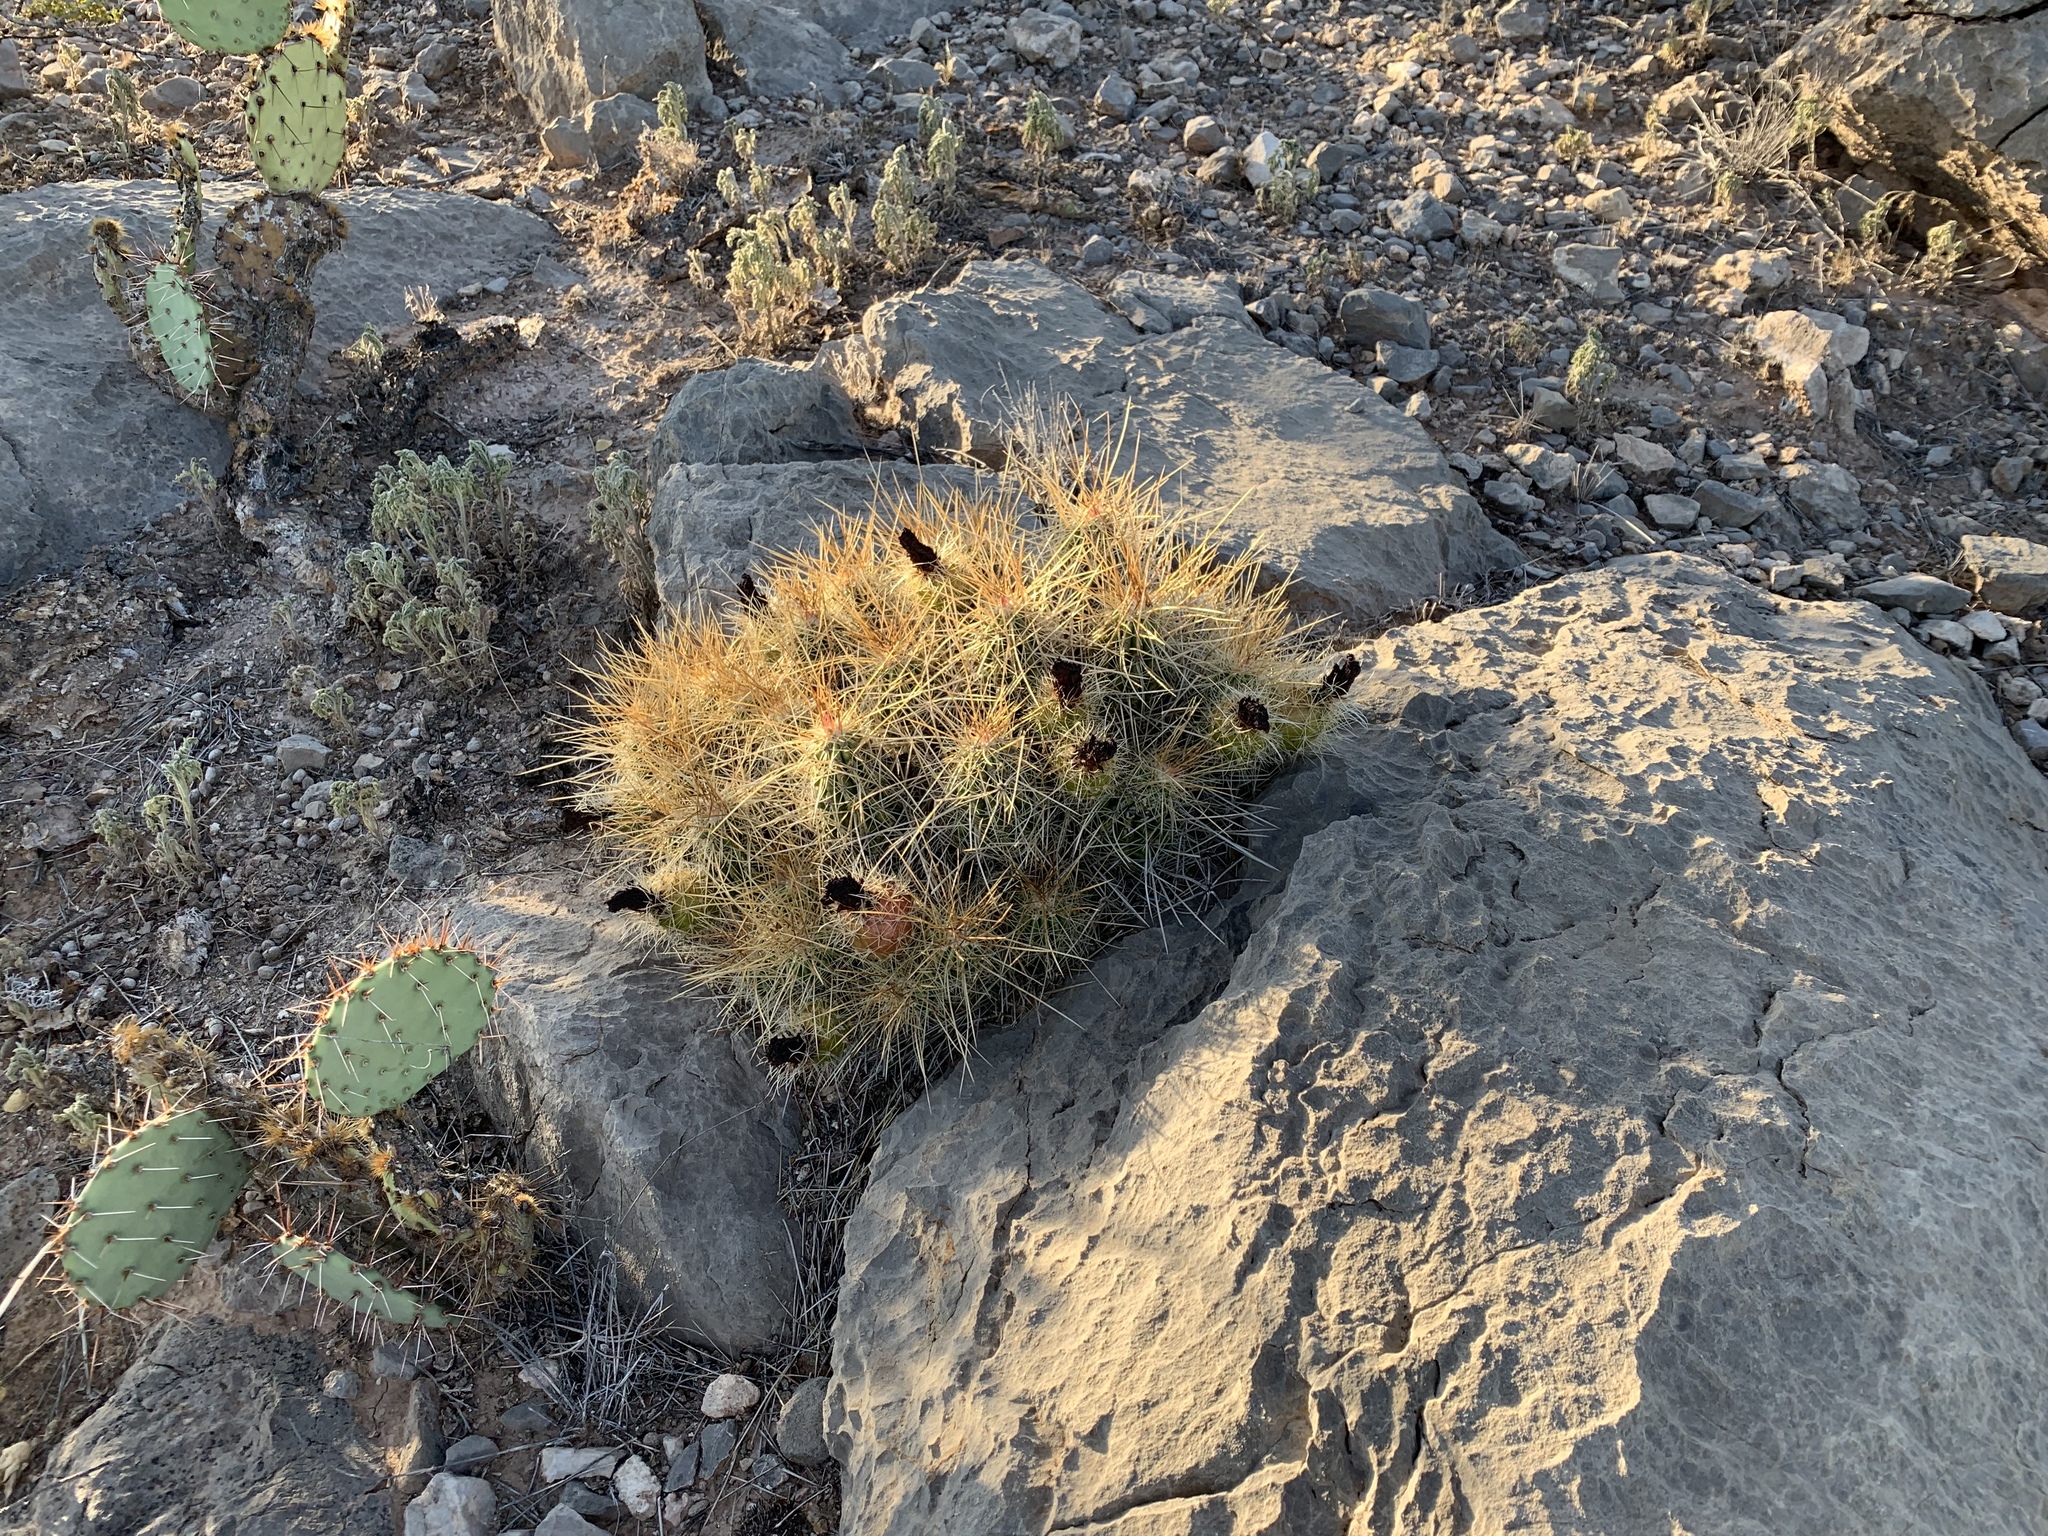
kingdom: Plantae
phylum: Tracheophyta
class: Magnoliopsida
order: Caryophyllales
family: Cactaceae
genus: Echinocereus
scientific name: Echinocereus stramineus
